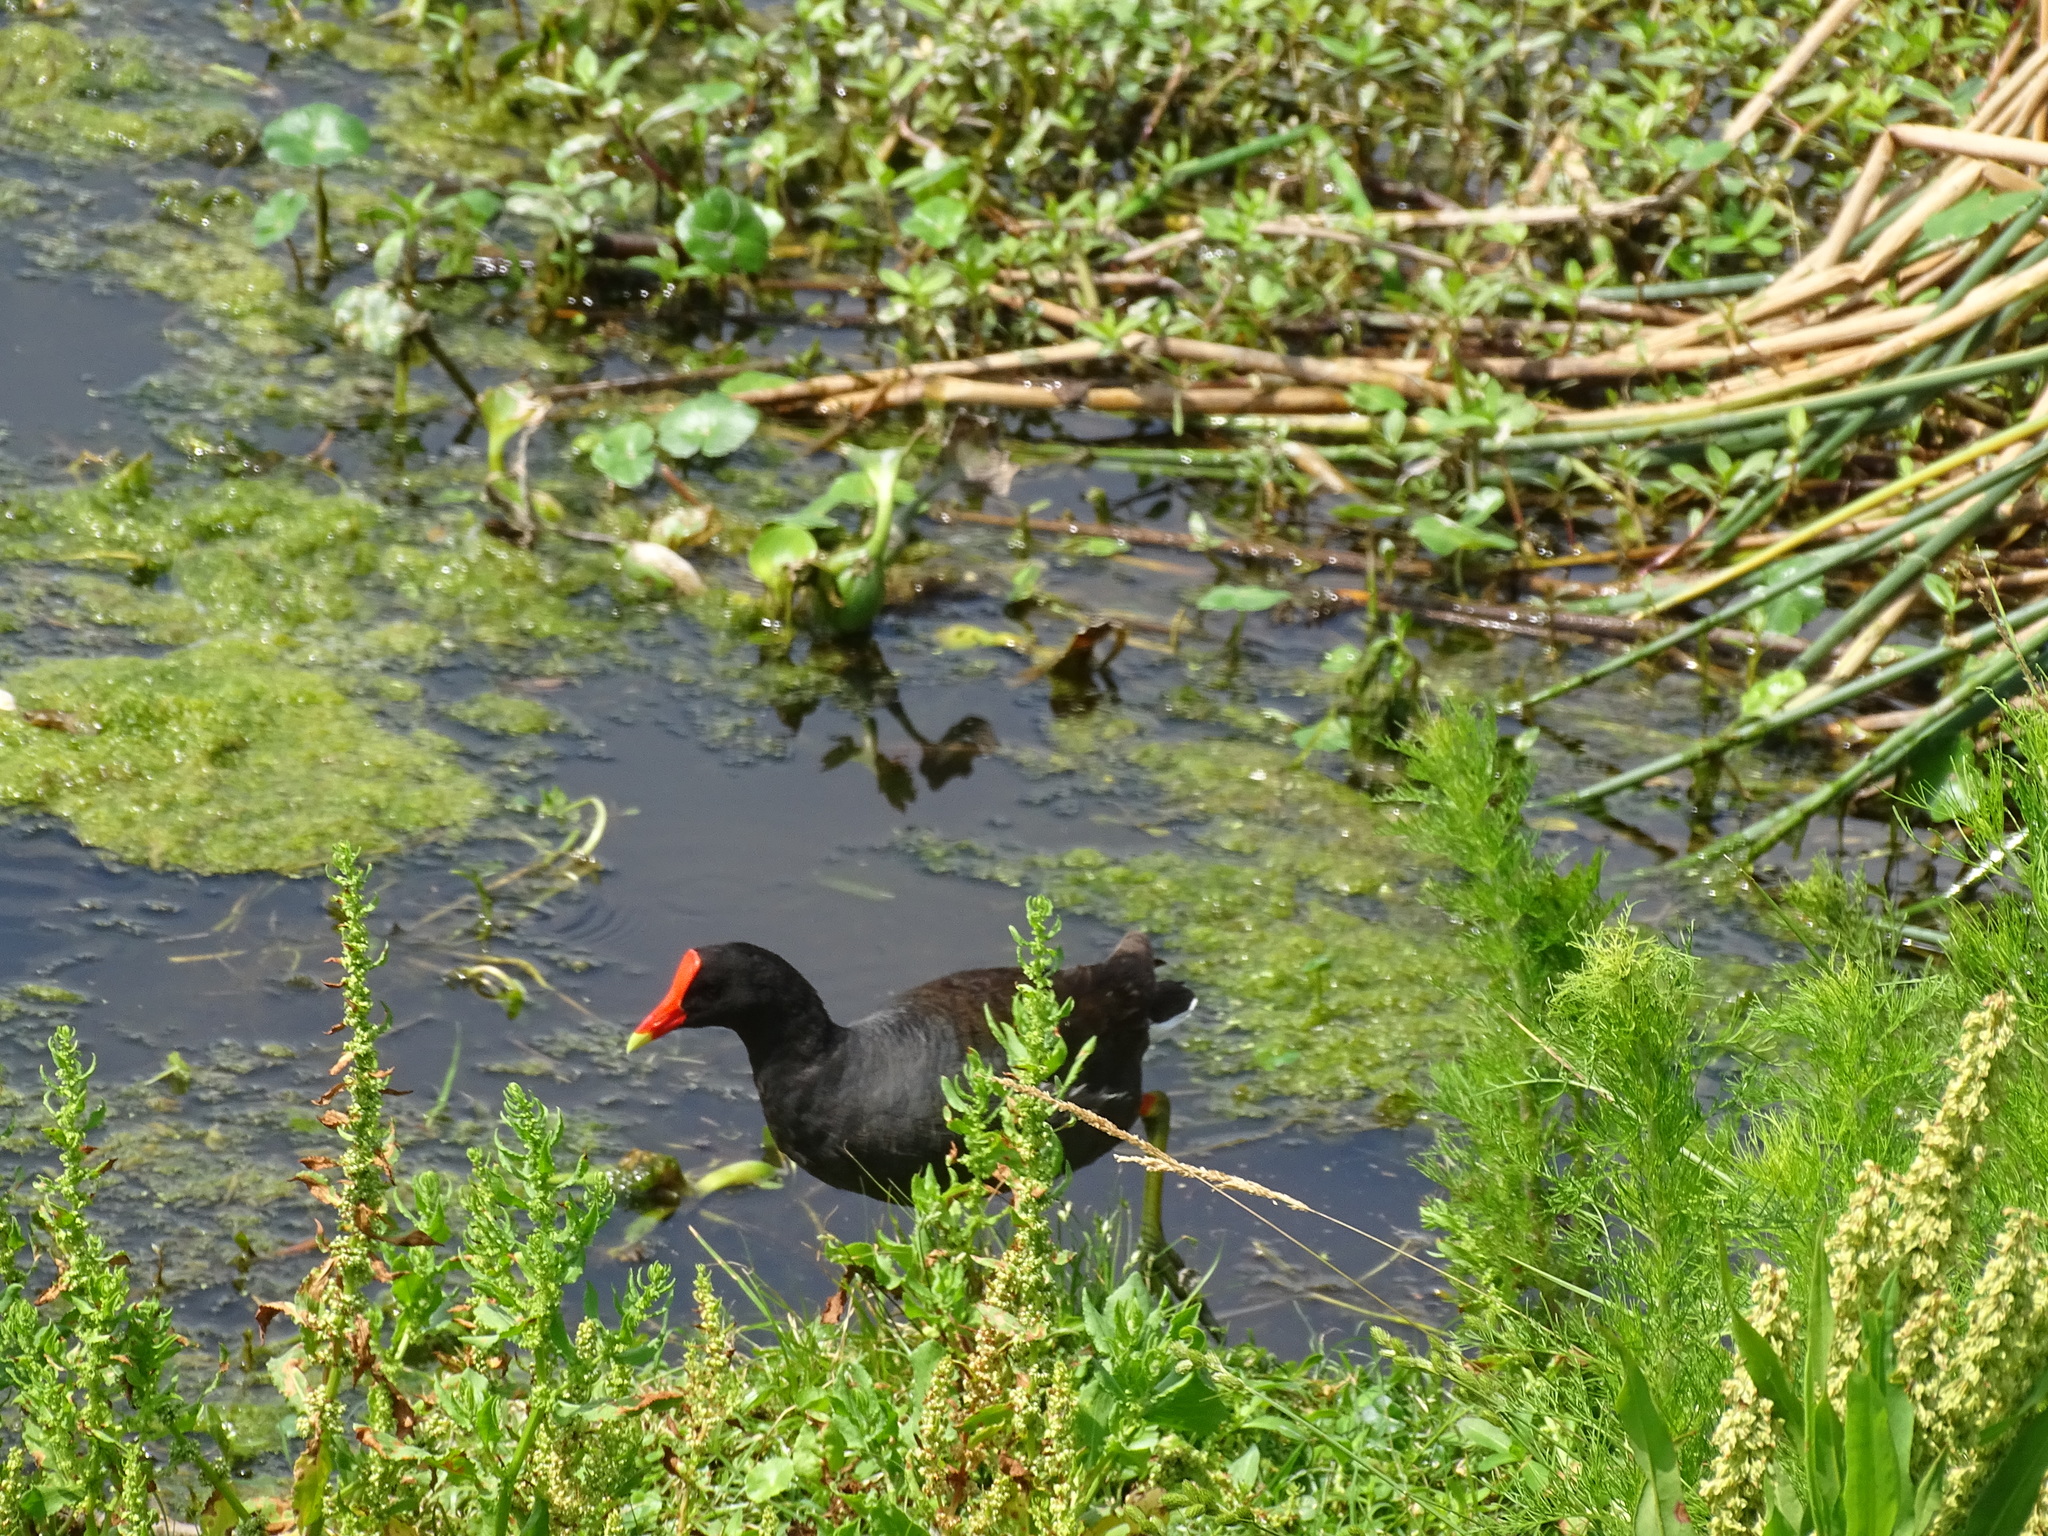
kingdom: Animalia
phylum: Chordata
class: Aves
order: Gruiformes
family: Rallidae
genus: Gallinula
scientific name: Gallinula chloropus
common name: Common moorhen
